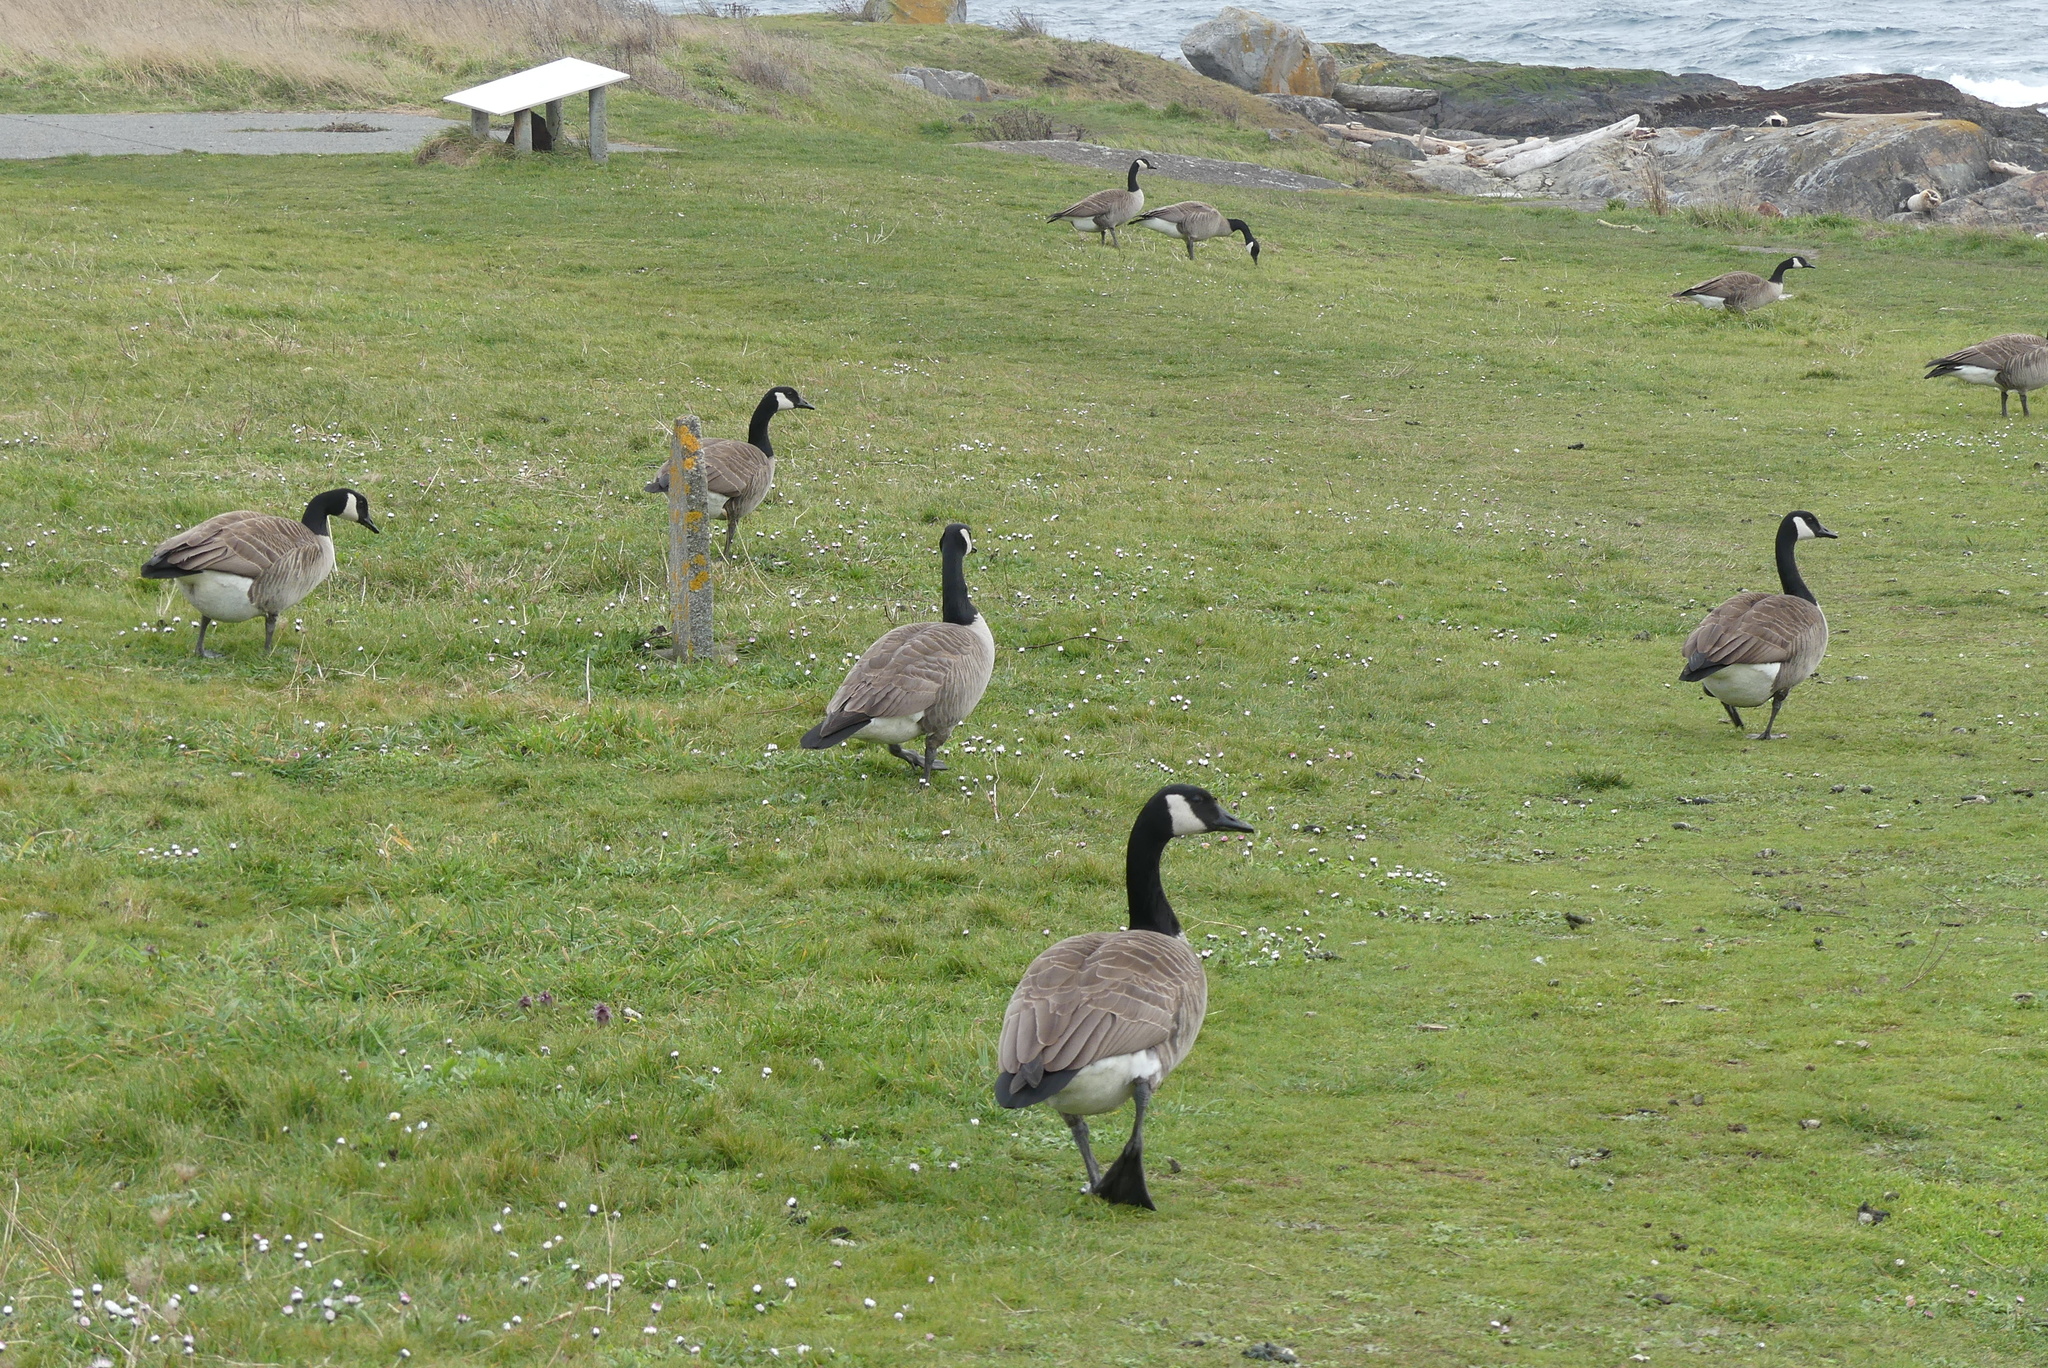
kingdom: Animalia
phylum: Chordata
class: Aves
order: Anseriformes
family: Anatidae
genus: Branta
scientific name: Branta canadensis
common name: Canada goose
